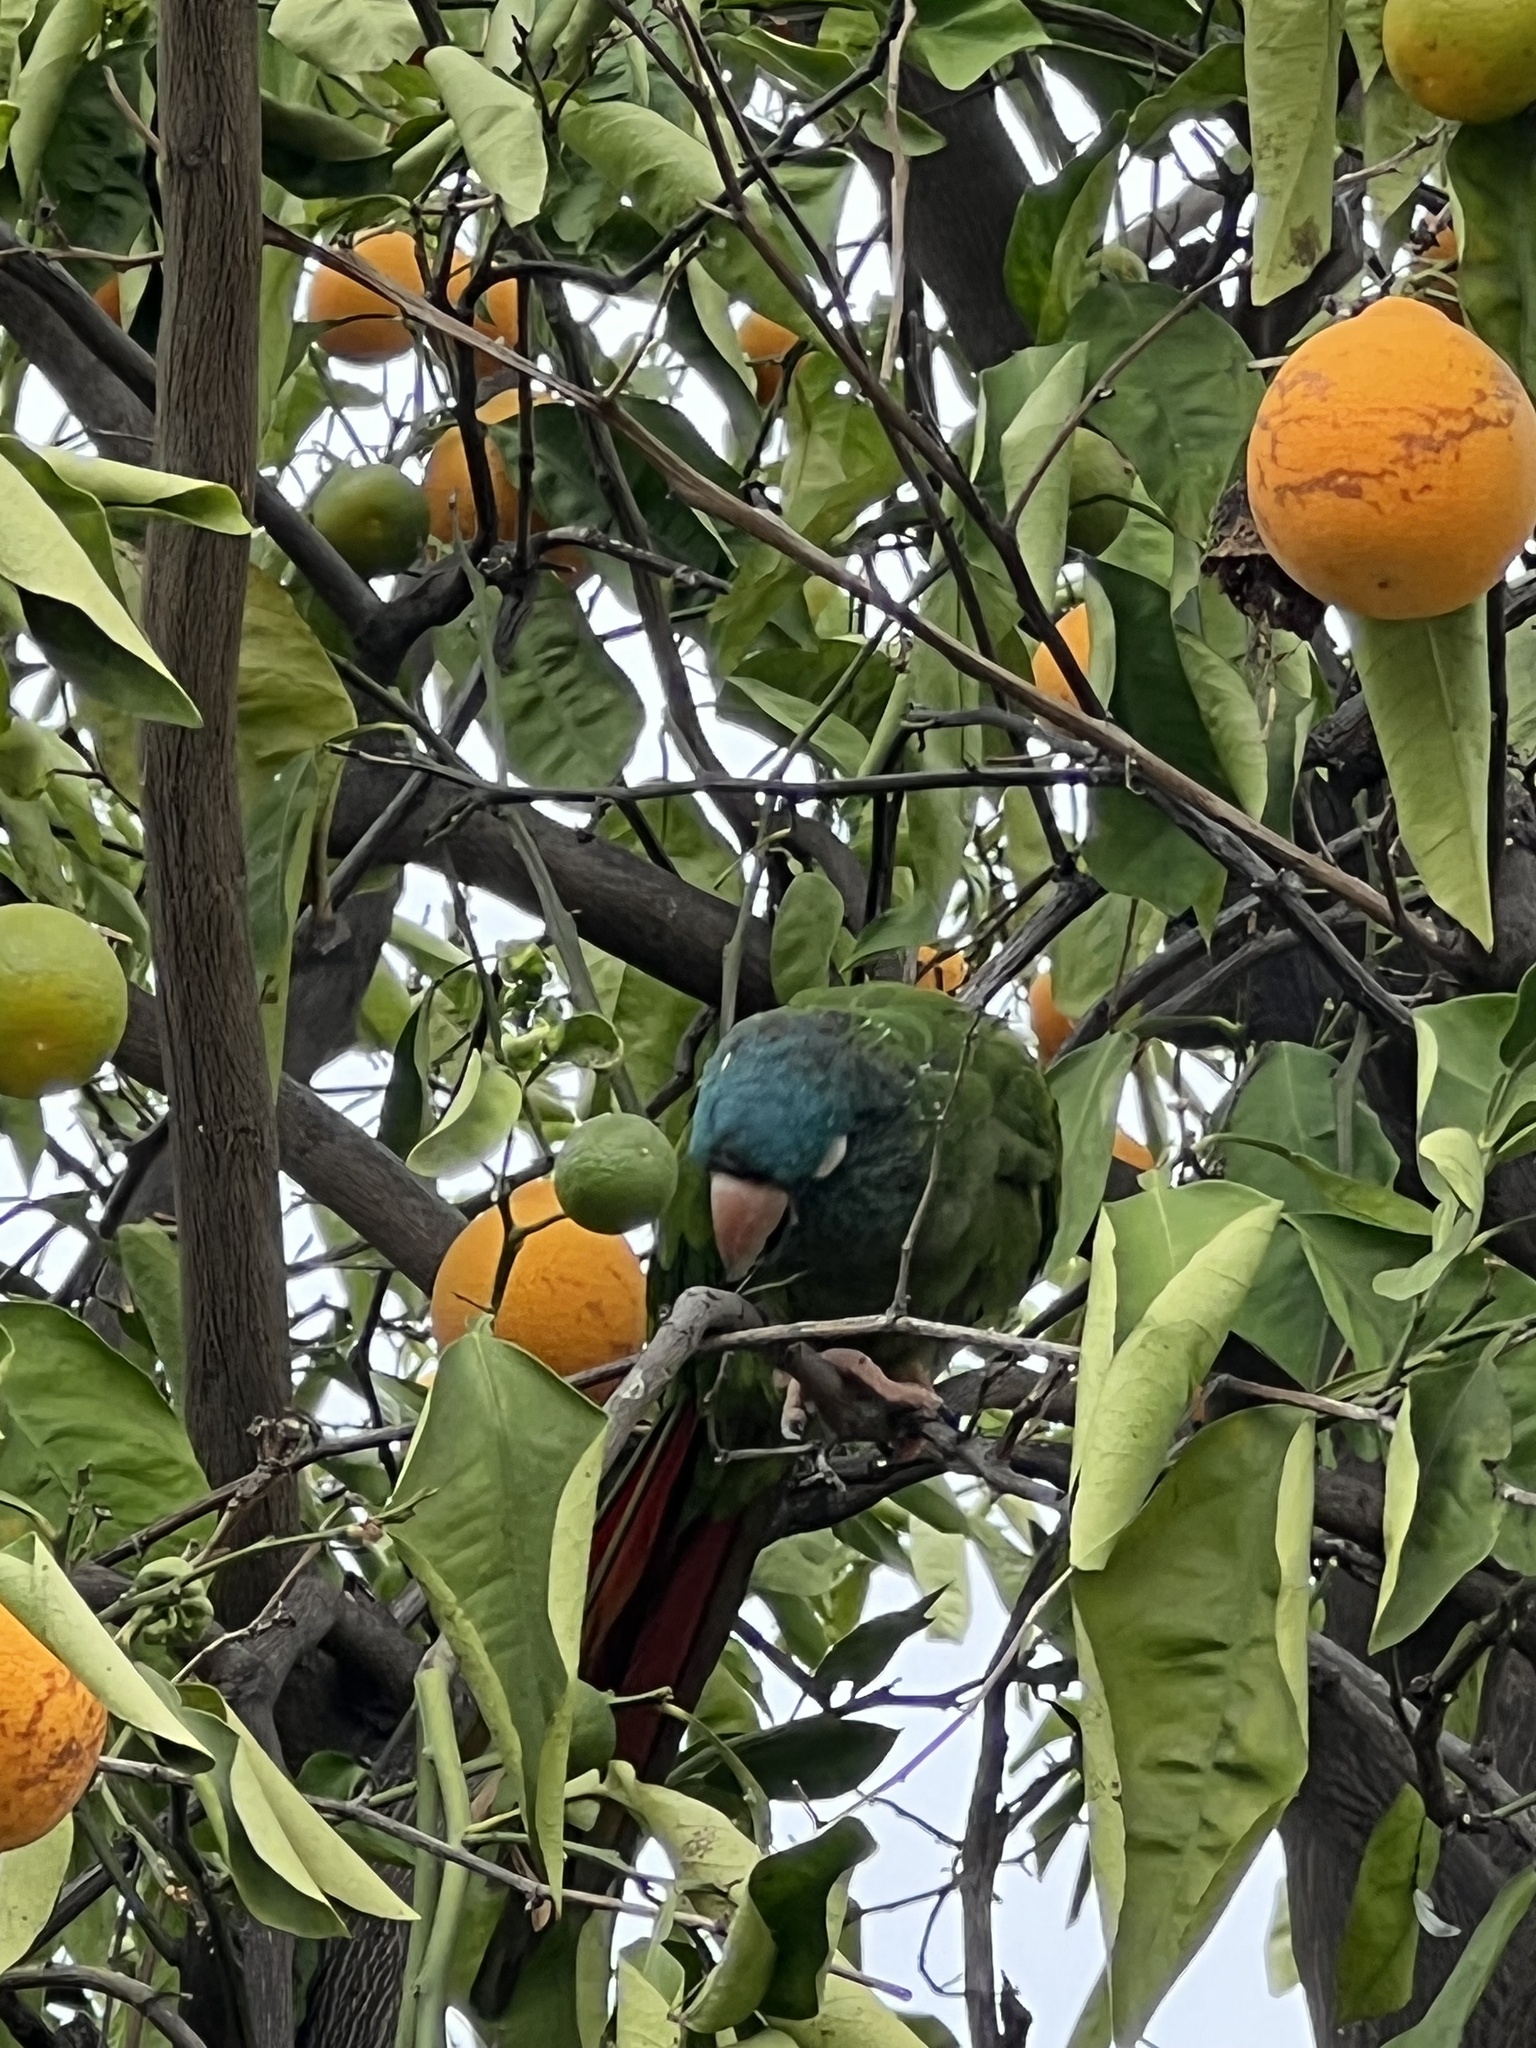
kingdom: Animalia
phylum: Chordata
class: Aves
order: Psittaciformes
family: Psittacidae
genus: Aratinga
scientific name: Aratinga acuticaudata
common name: Blue-crowned parakeet
